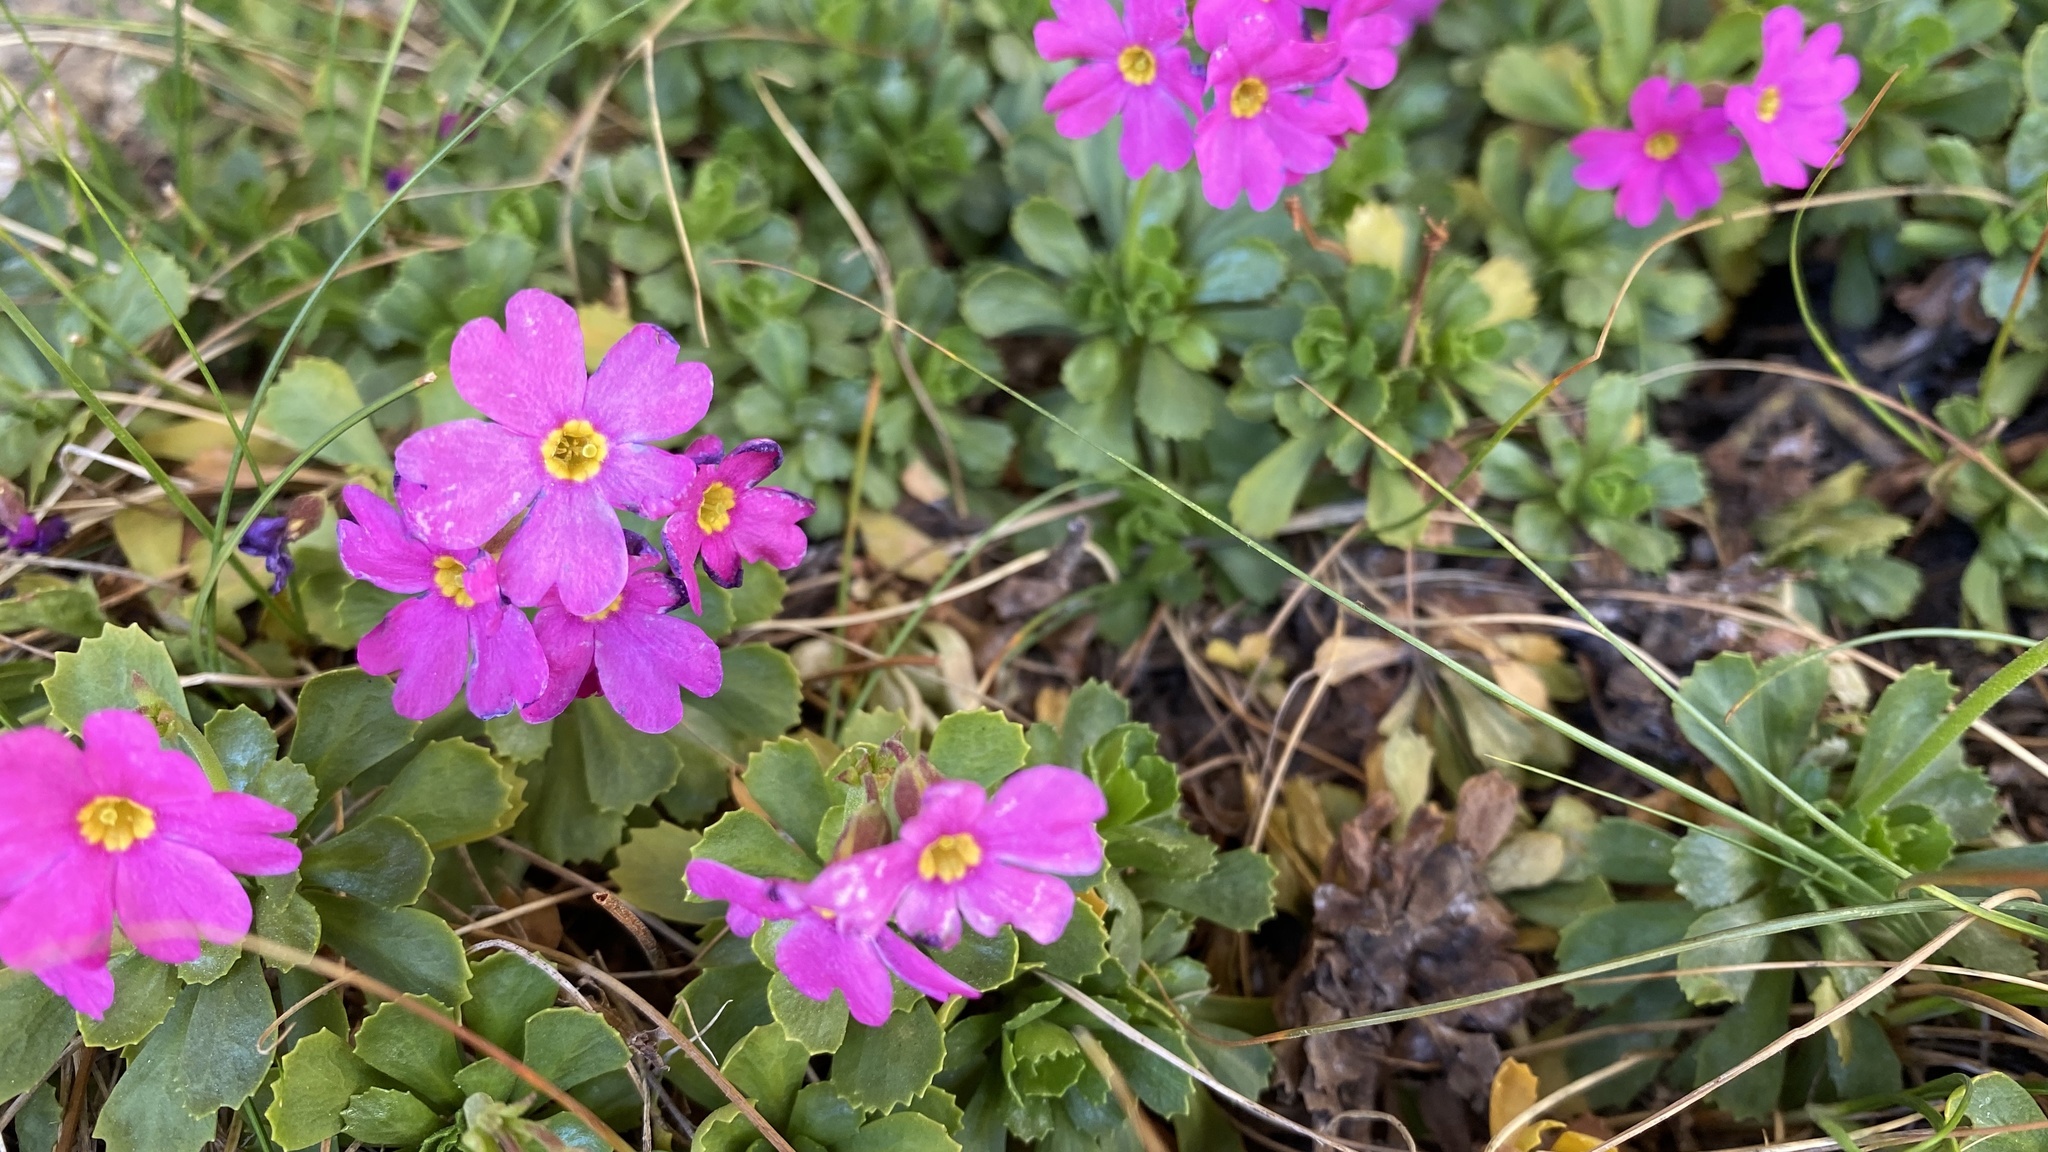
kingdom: Plantae
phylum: Tracheophyta
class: Magnoliopsida
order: Ericales
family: Primulaceae
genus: Primula
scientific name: Primula suffrutescens
